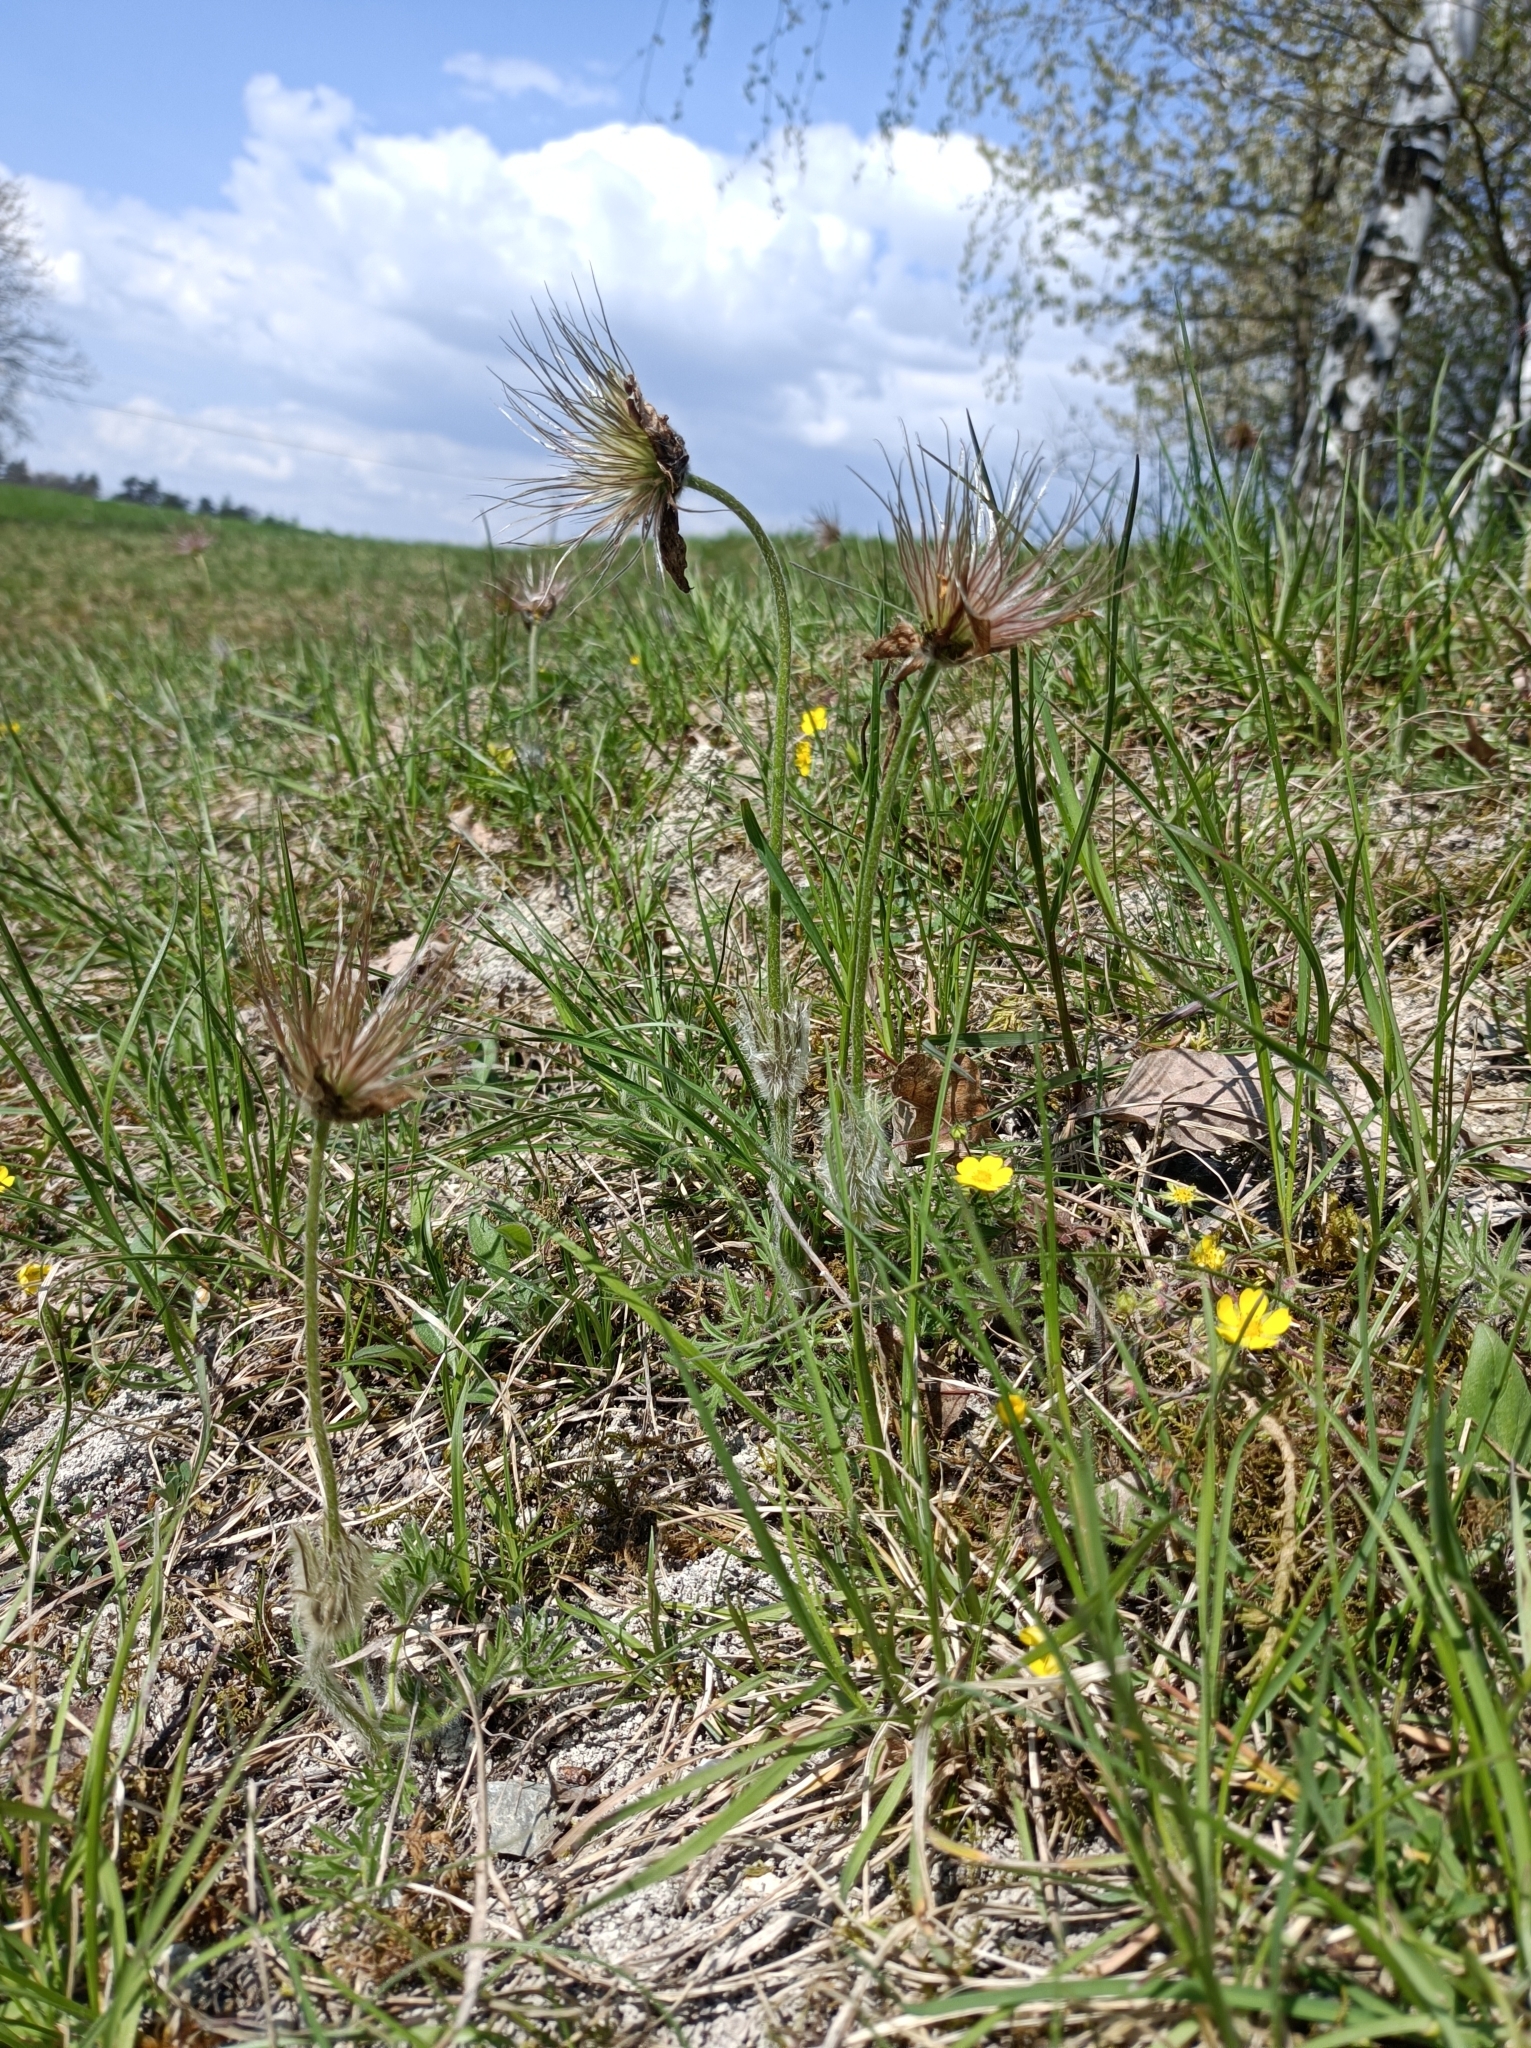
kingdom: Plantae
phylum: Tracheophyta
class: Magnoliopsida
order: Ranunculales
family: Ranunculaceae
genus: Pulsatilla
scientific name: Pulsatilla grandis
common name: Greater pasque flower
